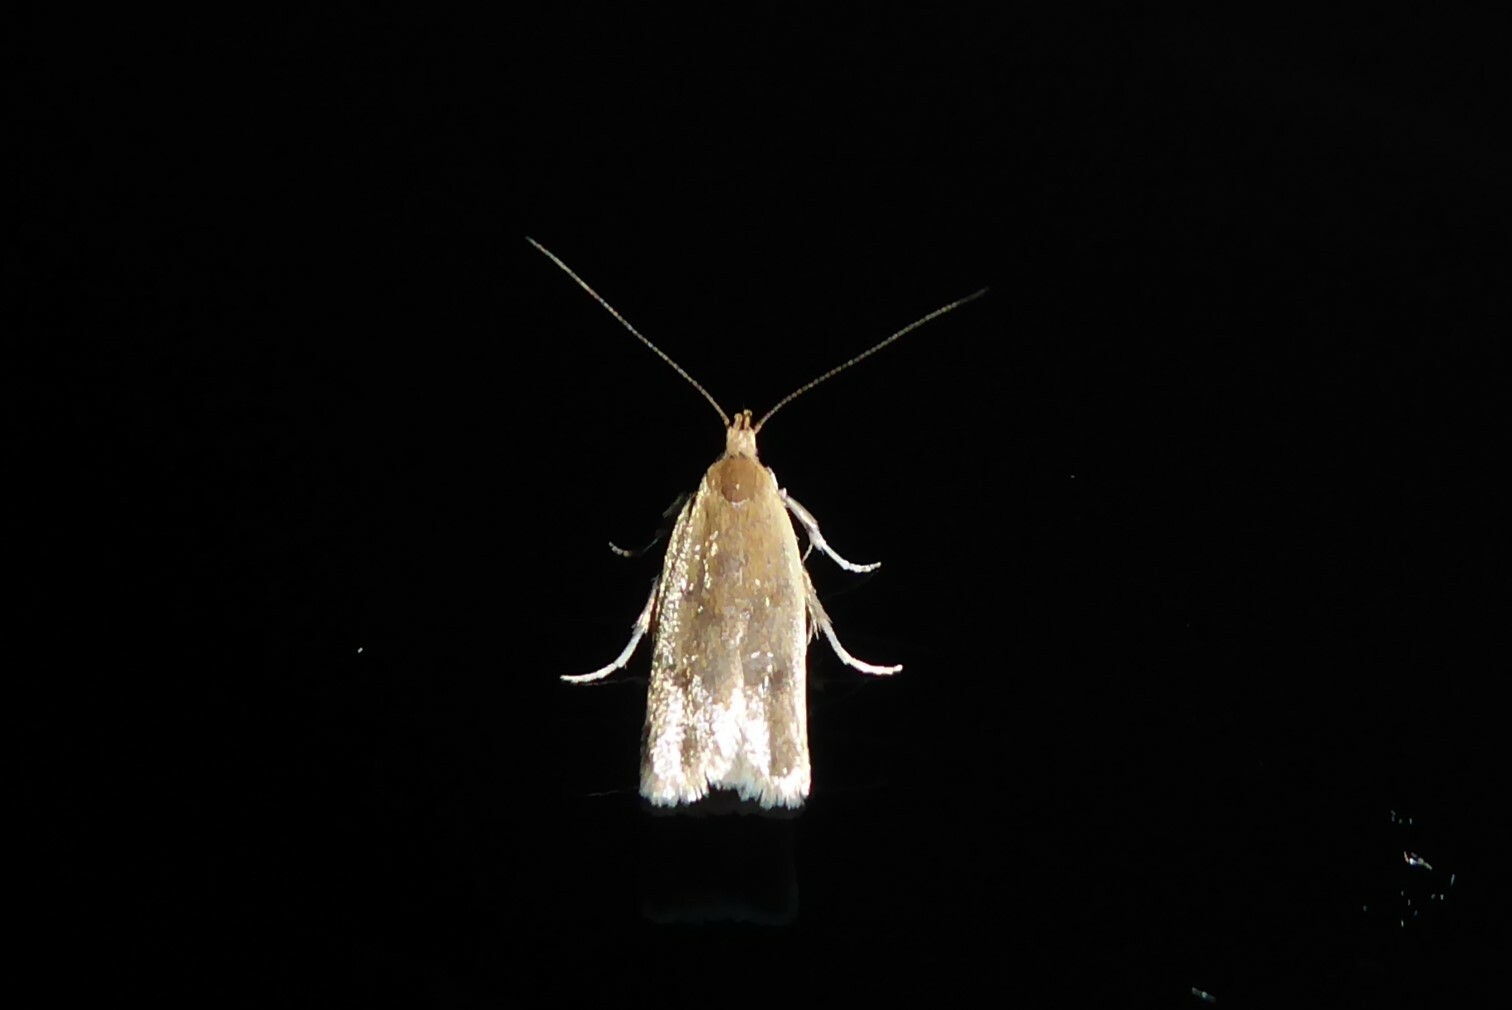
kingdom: Animalia
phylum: Arthropoda
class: Insecta
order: Lepidoptera
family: Oecophoridae
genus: Gymnobathra
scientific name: Gymnobathra parca
